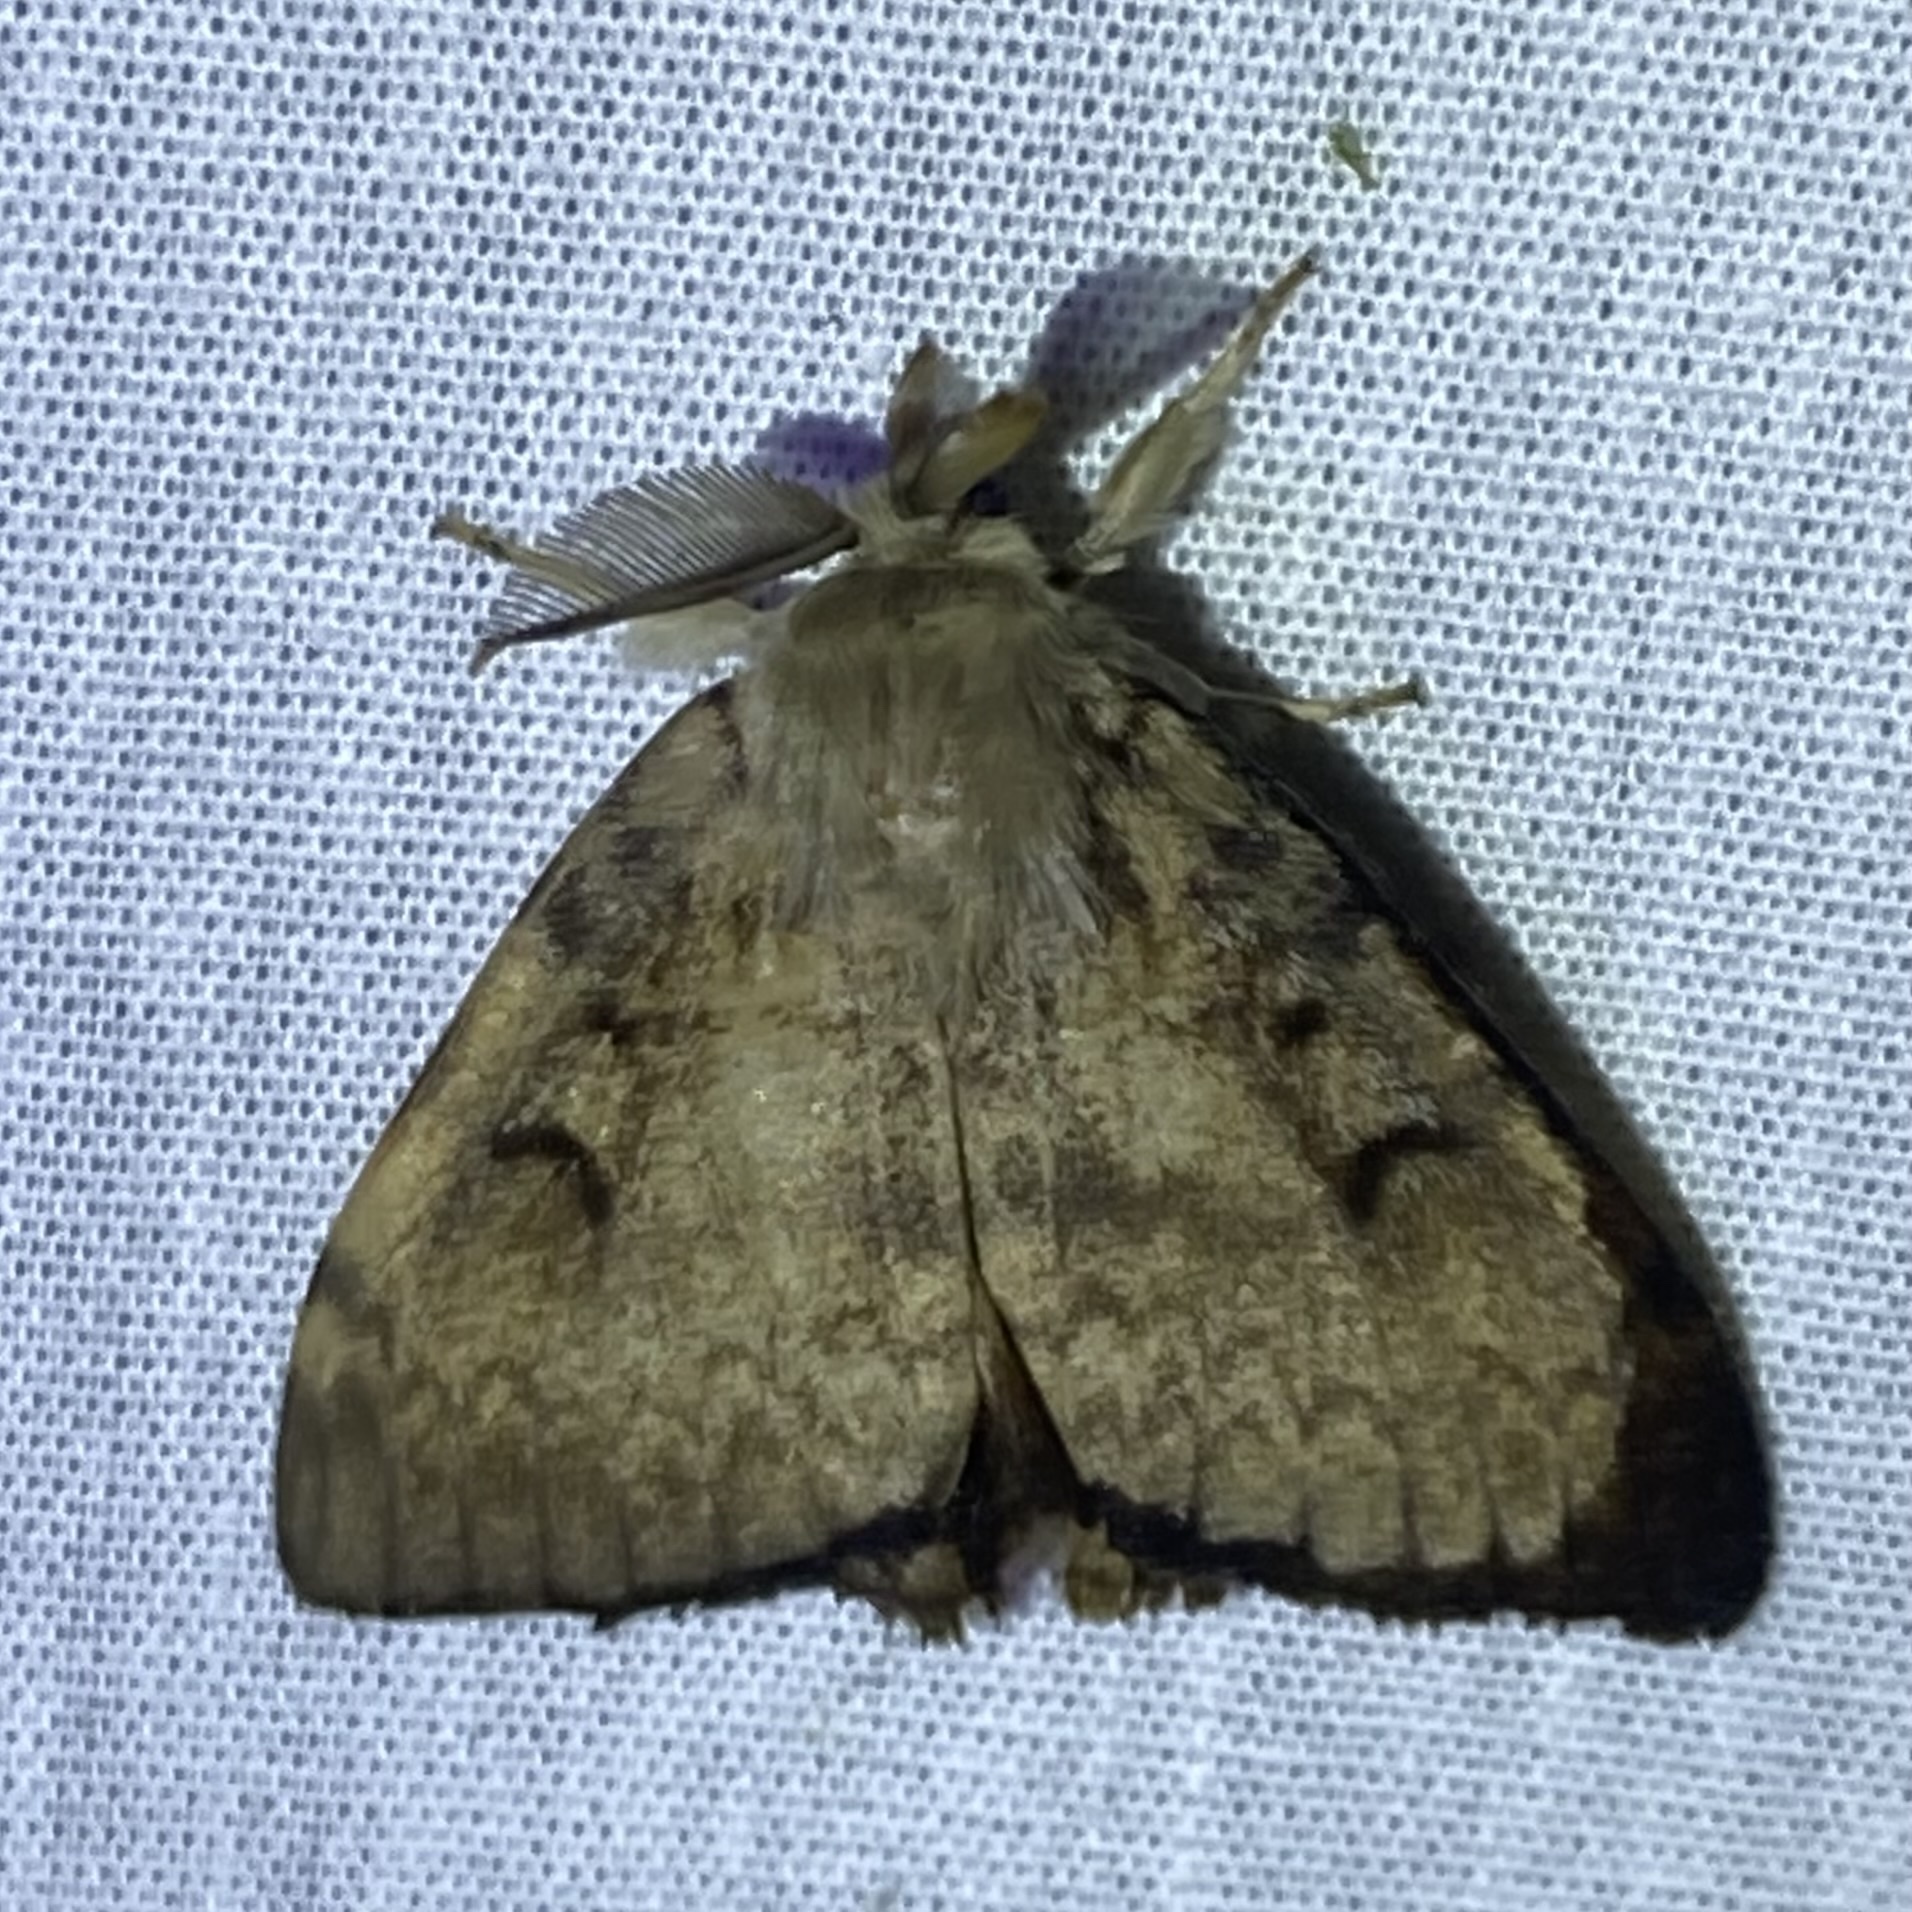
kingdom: Animalia
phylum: Arthropoda
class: Insecta
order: Lepidoptera
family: Erebidae
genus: Lymantria
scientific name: Lymantria dispar
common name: Gypsy moth
